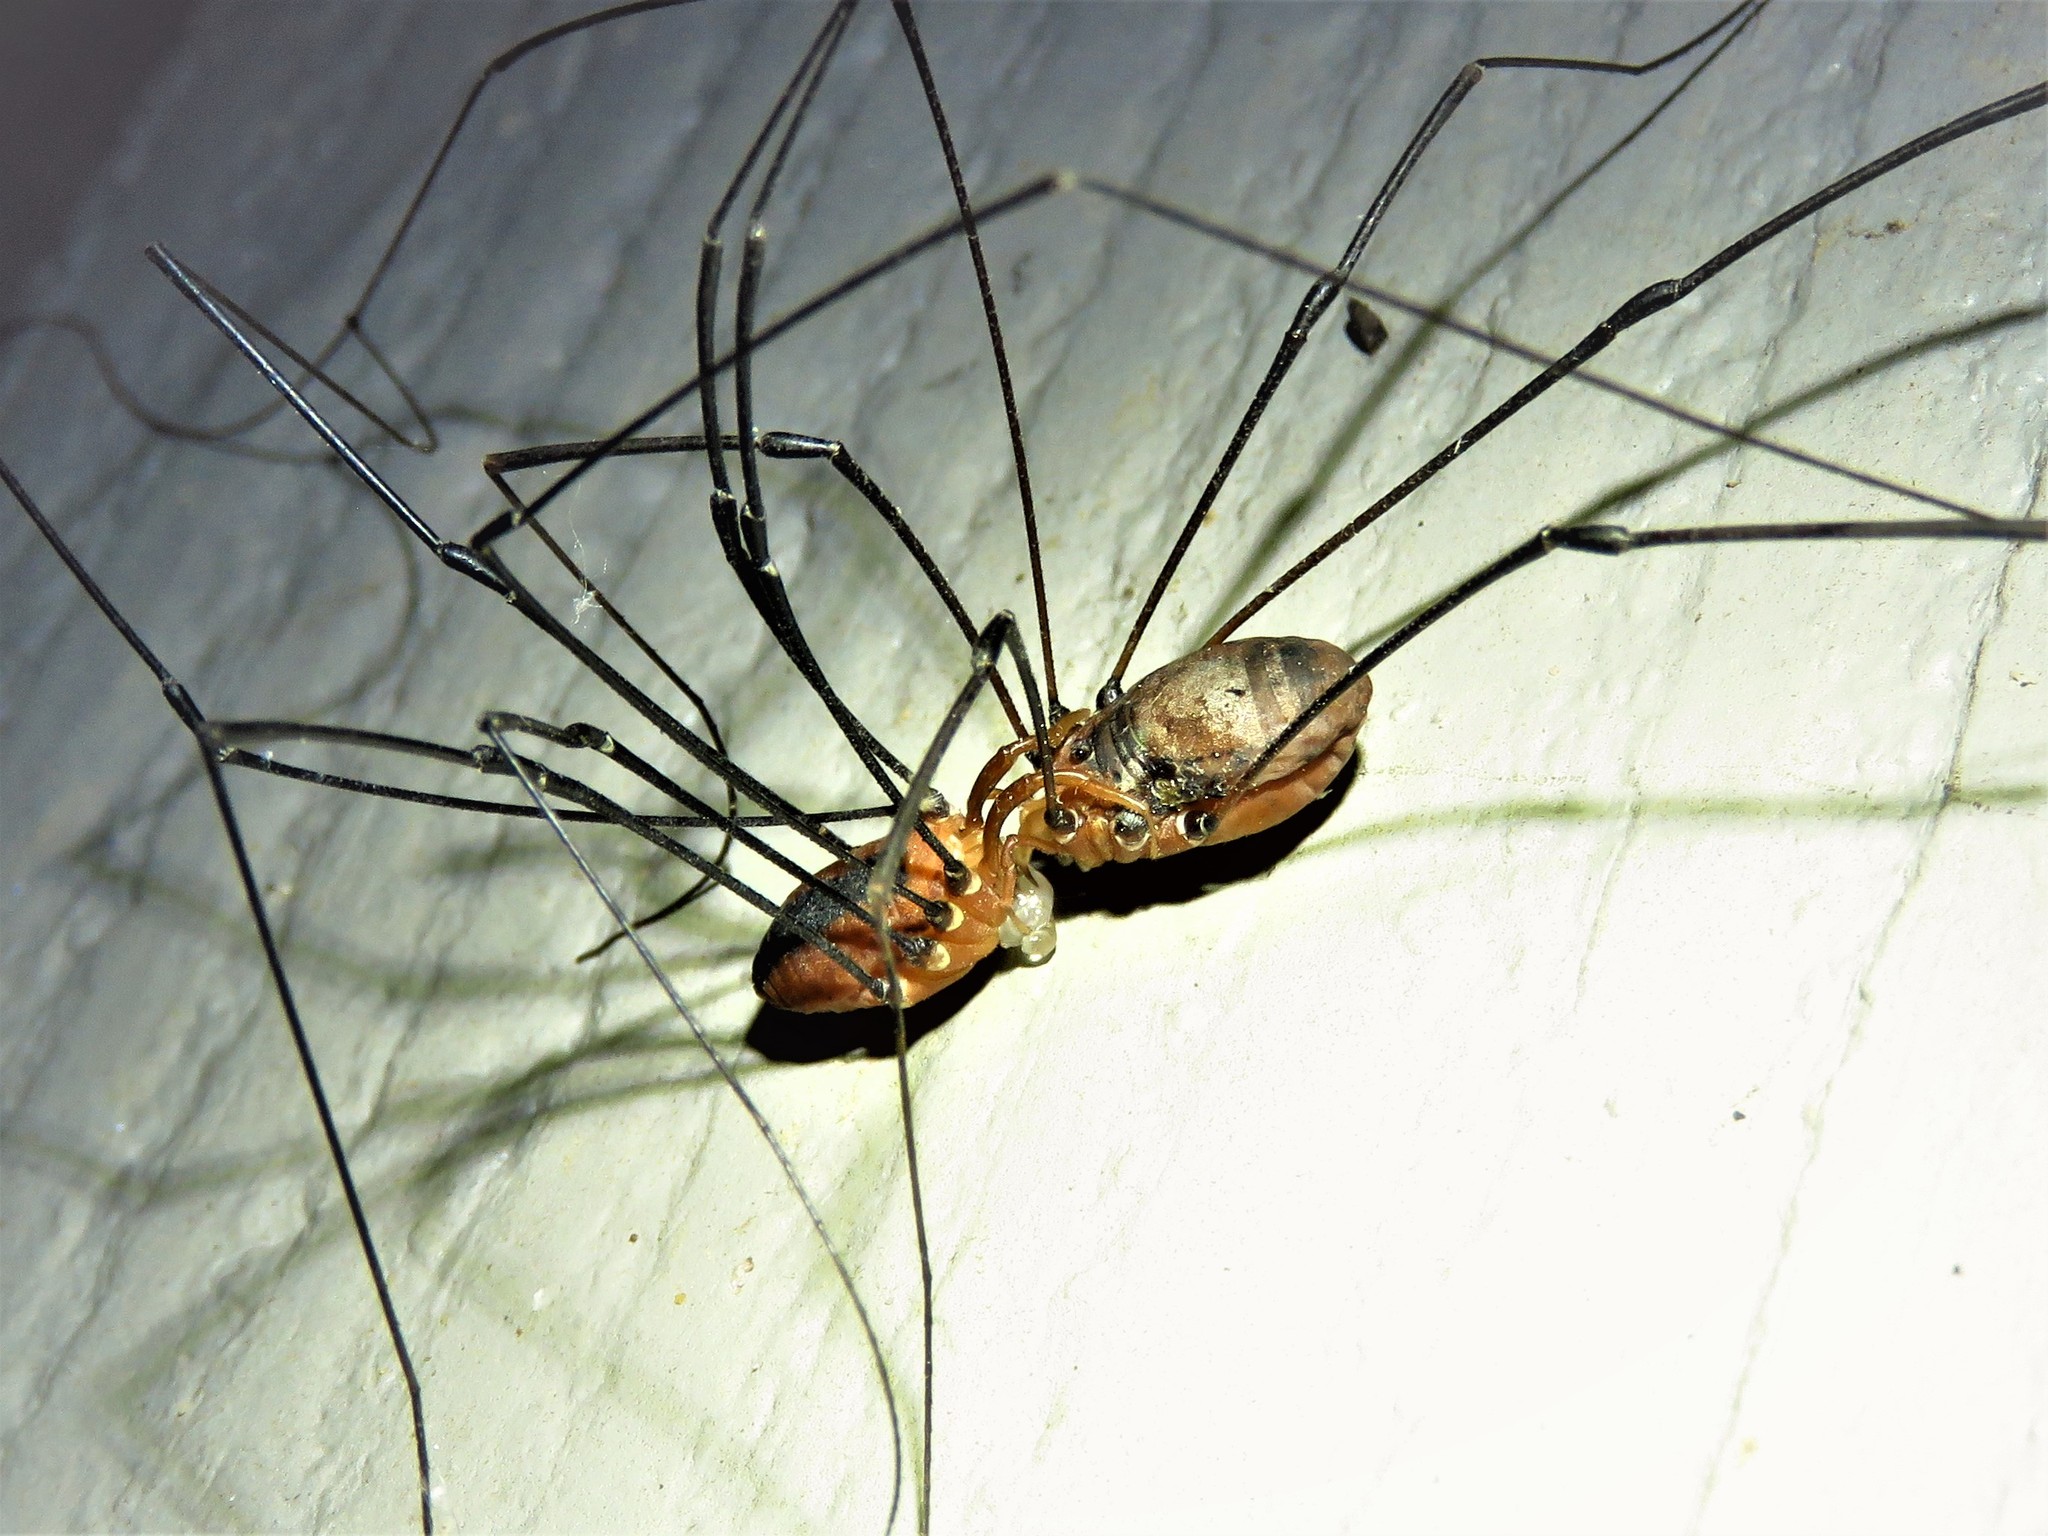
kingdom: Animalia
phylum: Arthropoda
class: Arachnida
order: Opiliones
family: Sclerosomatidae
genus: Leiobunum
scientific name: Leiobunum vittatum
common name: Eastern harvestman
